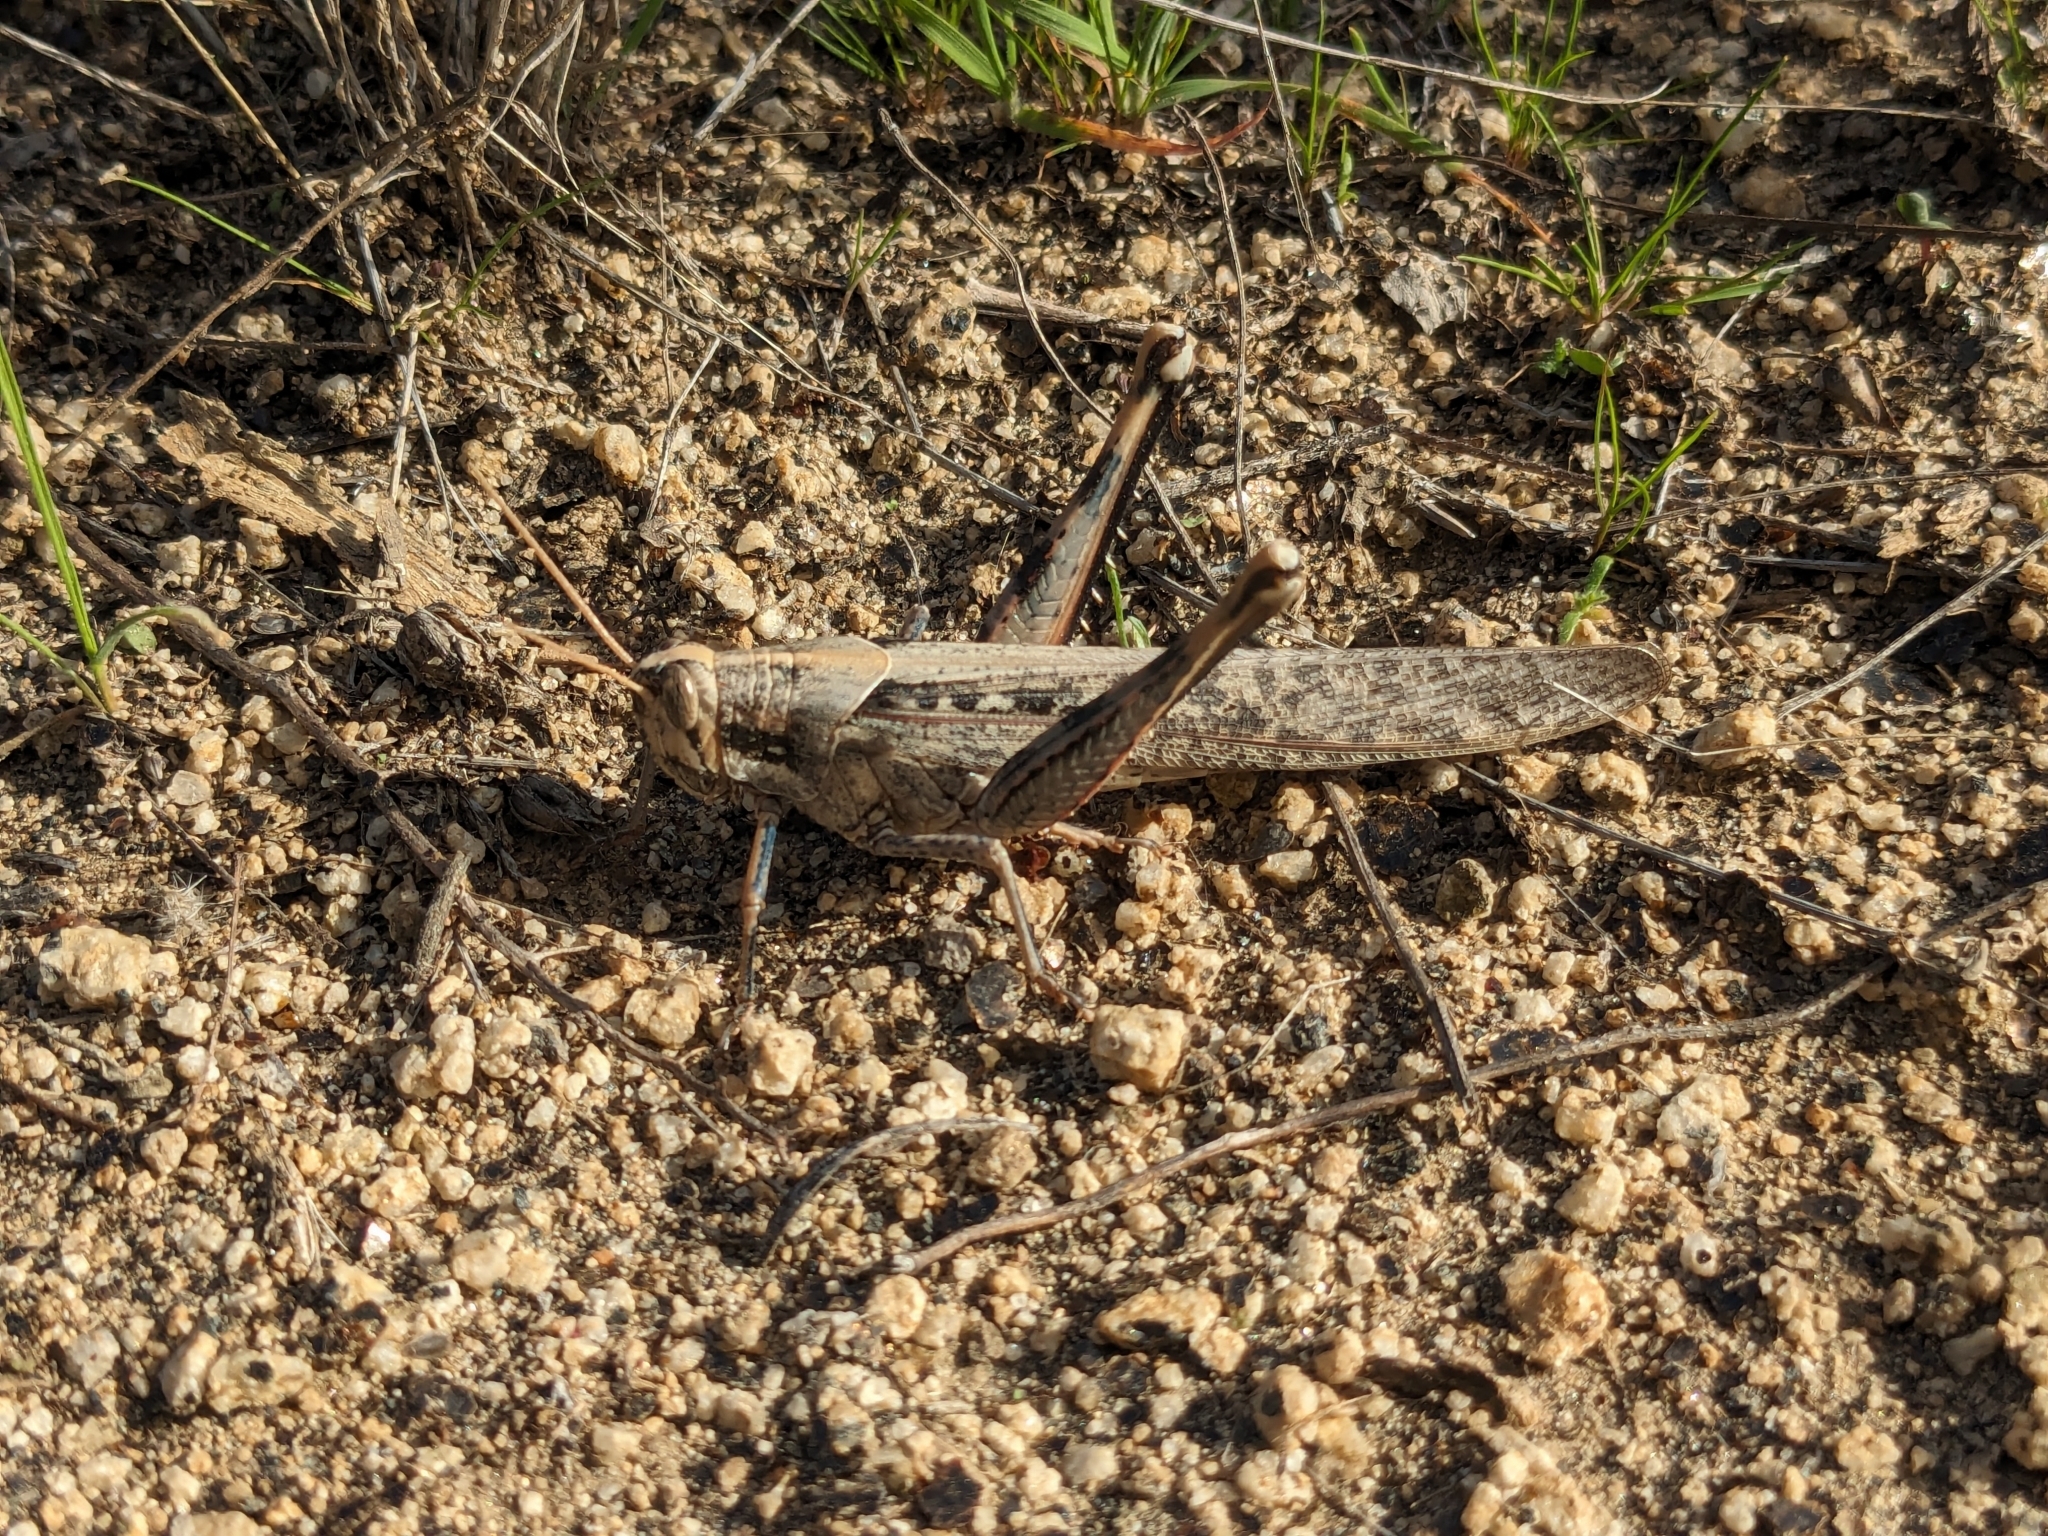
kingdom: Animalia
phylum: Arthropoda
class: Insecta
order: Orthoptera
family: Acrididae
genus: Schistocerca
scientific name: Schistocerca nitens
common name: Vagrant grasshopper
